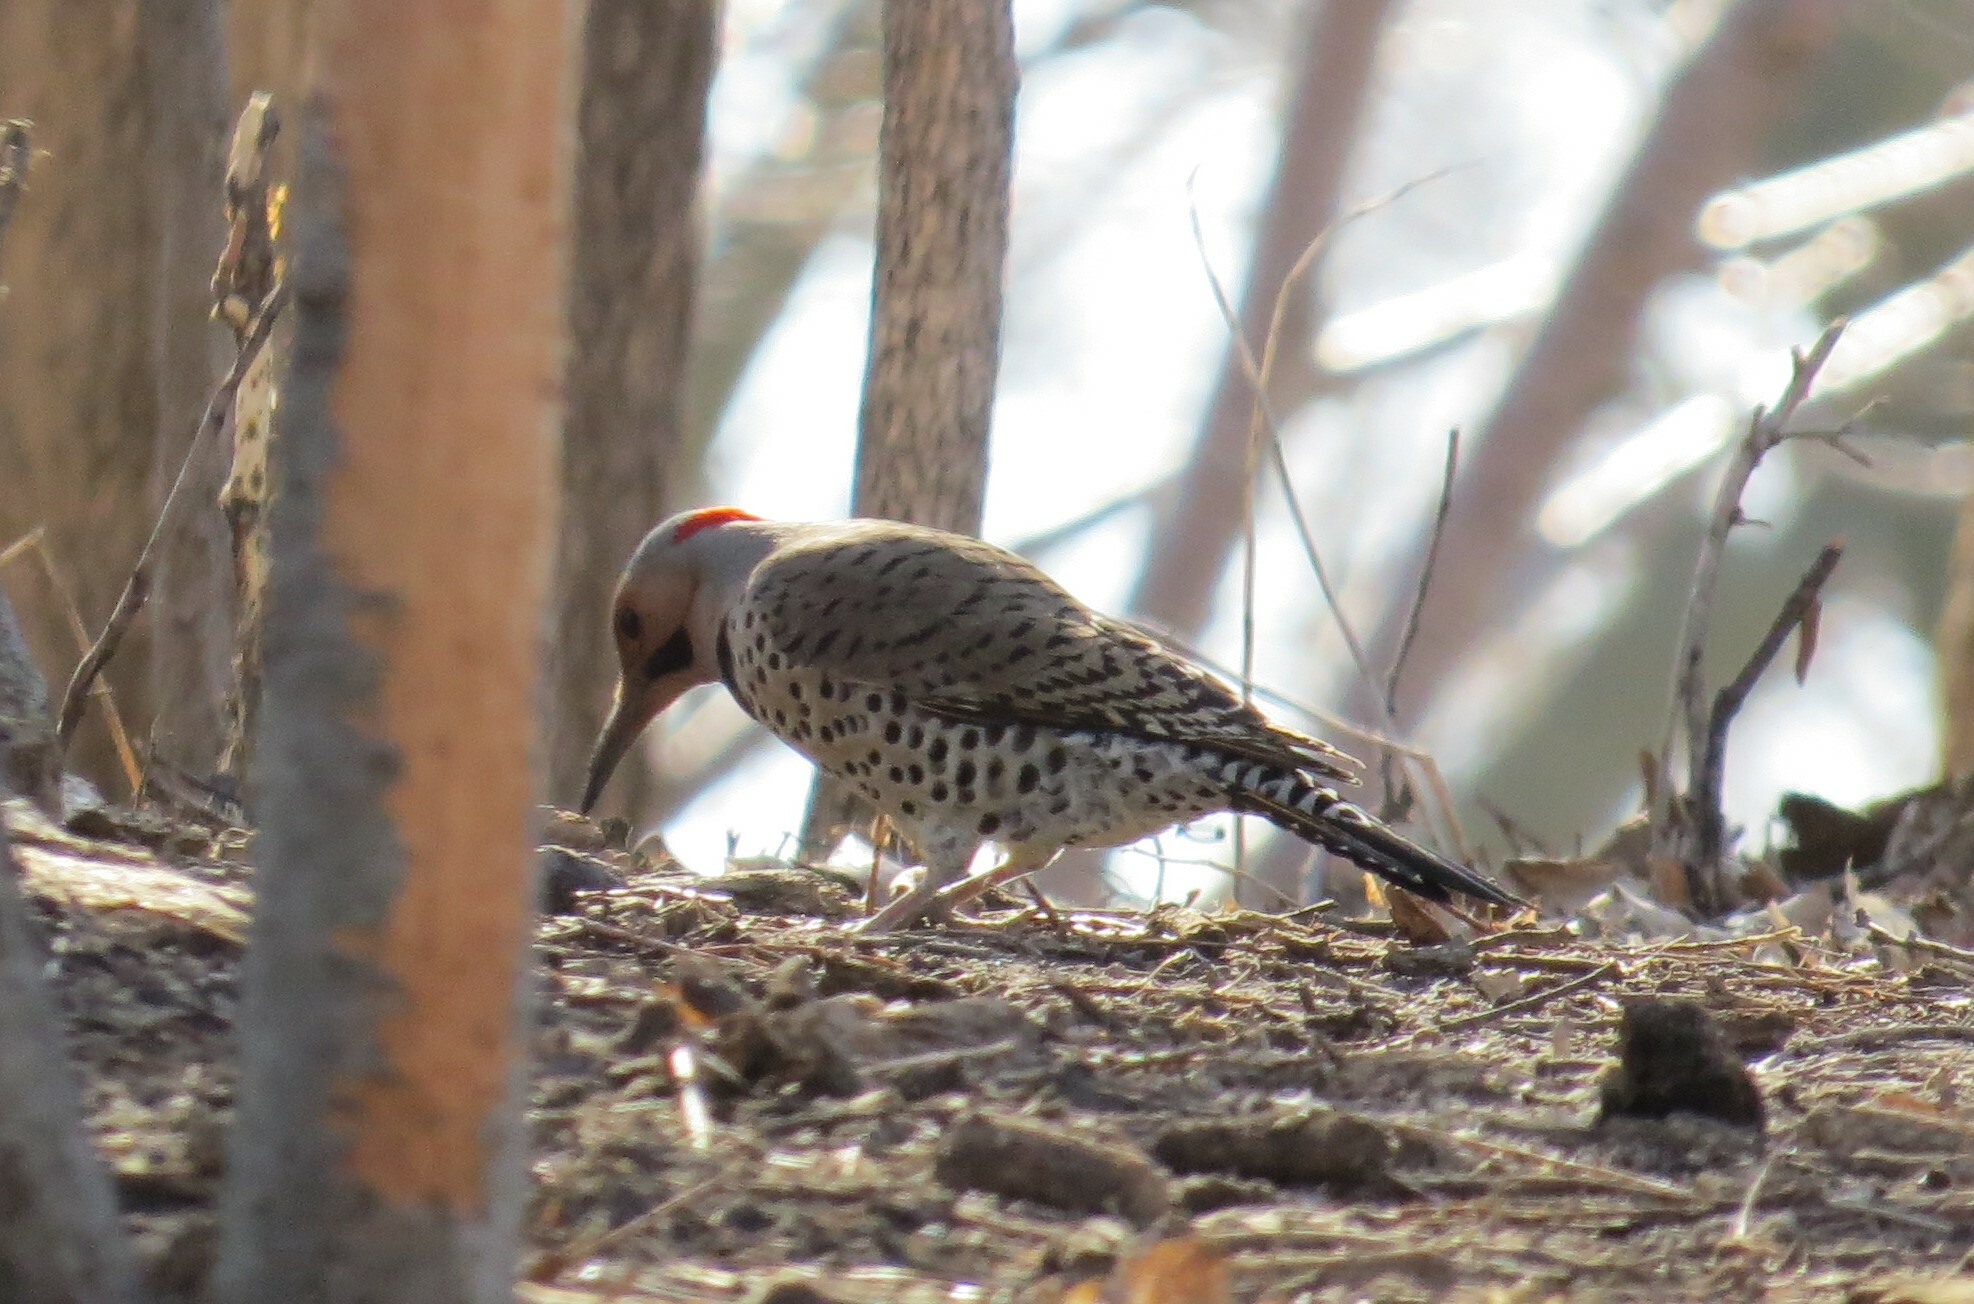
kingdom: Animalia
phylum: Chordata
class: Aves
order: Piciformes
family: Picidae
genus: Colaptes
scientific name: Colaptes auratus
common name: Northern flicker
